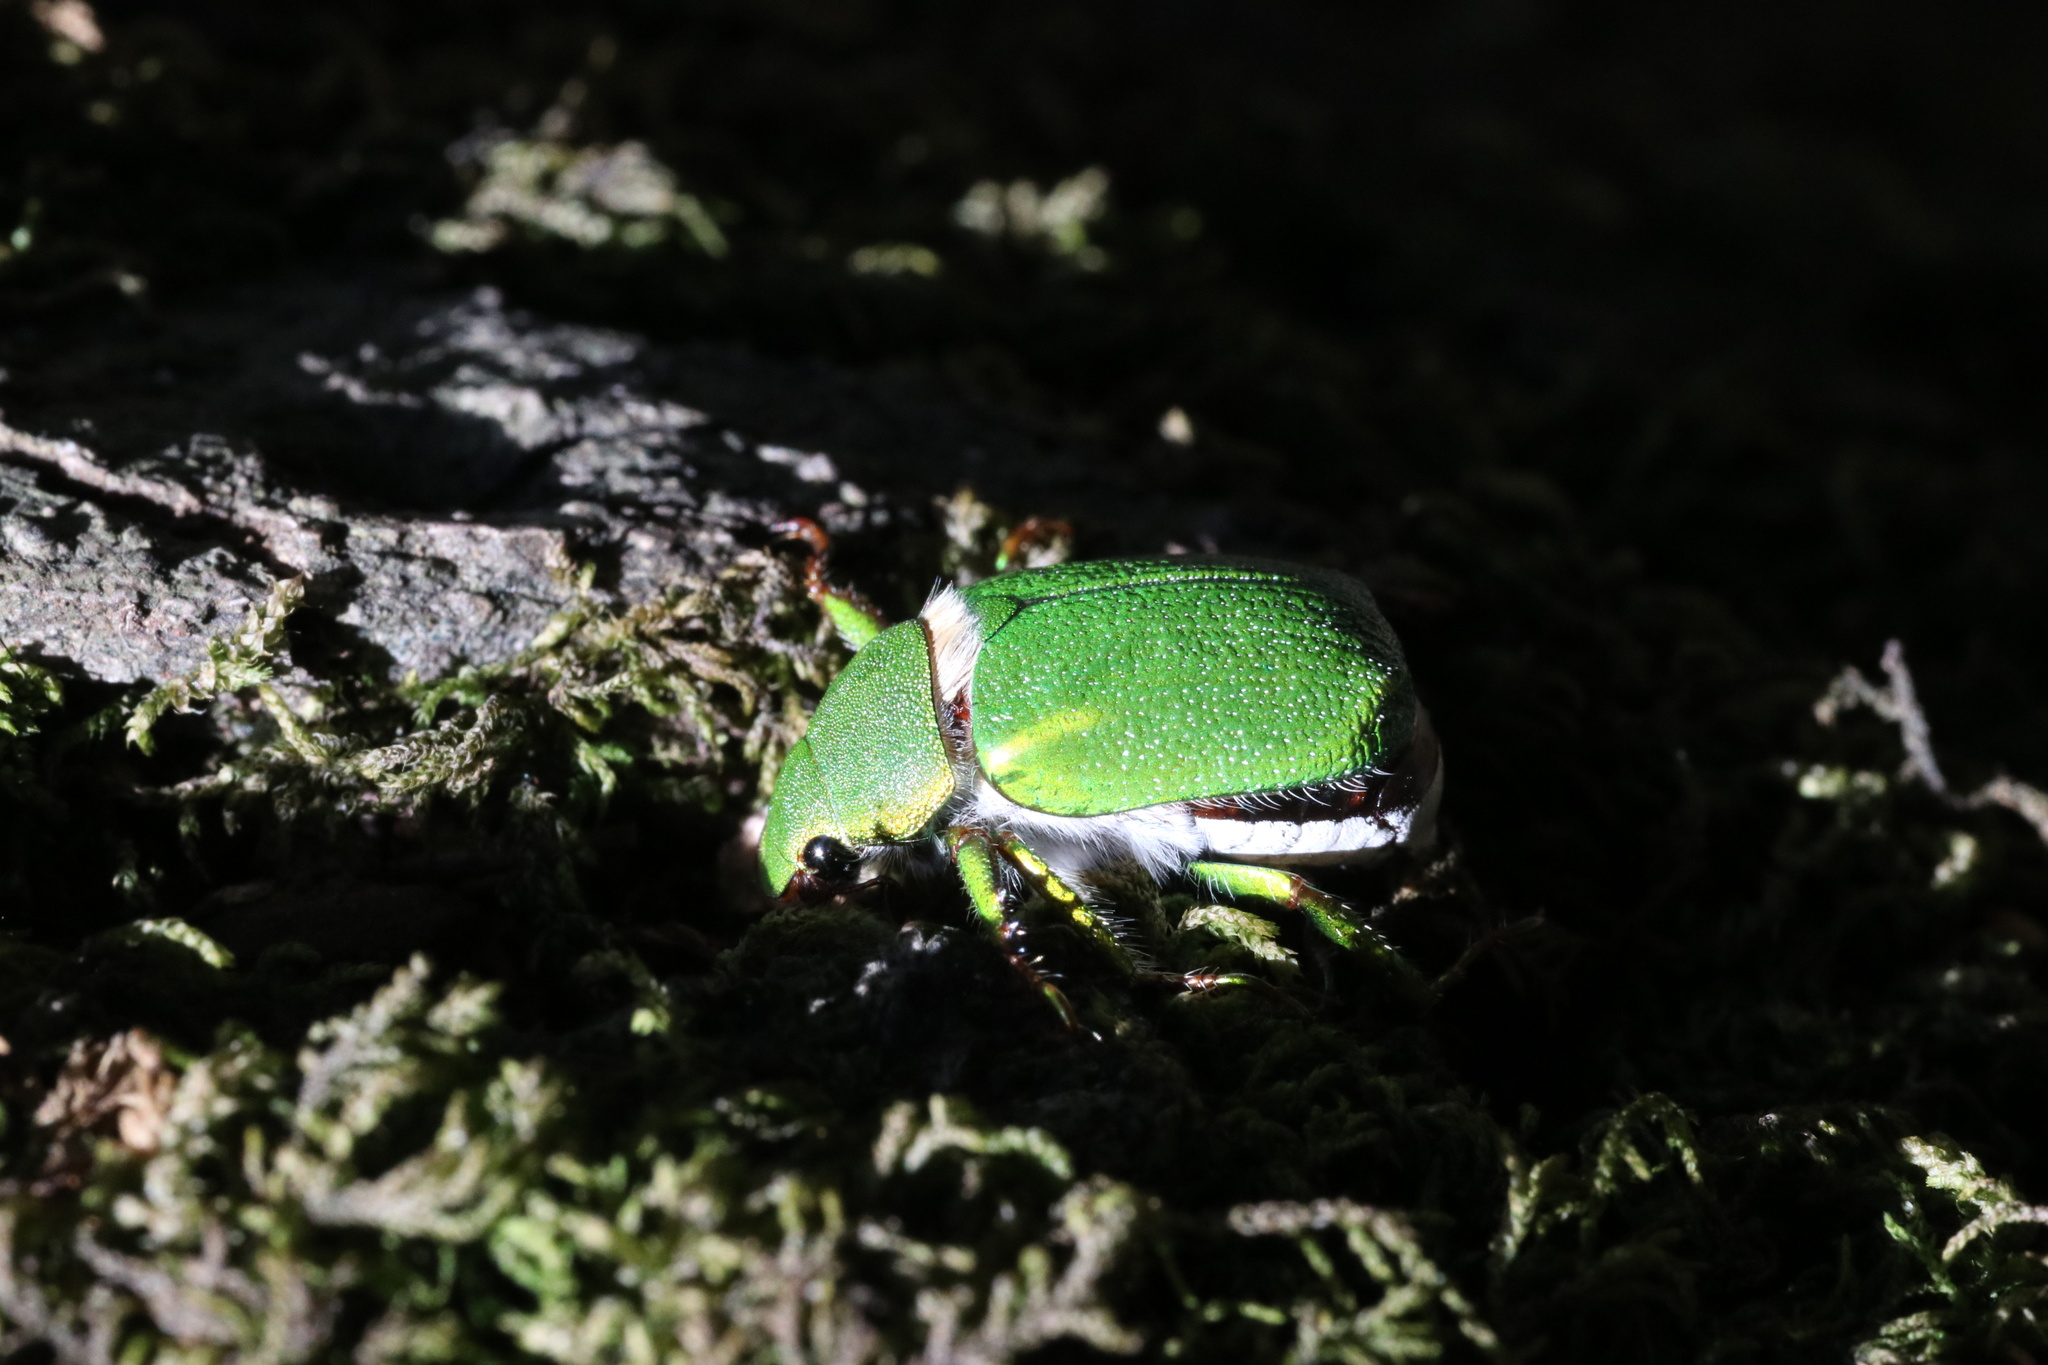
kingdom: Animalia
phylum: Arthropoda
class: Insecta
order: Coleoptera
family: Scarabaeidae
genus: Hylamorpha
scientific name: Hylamorpha elegans
